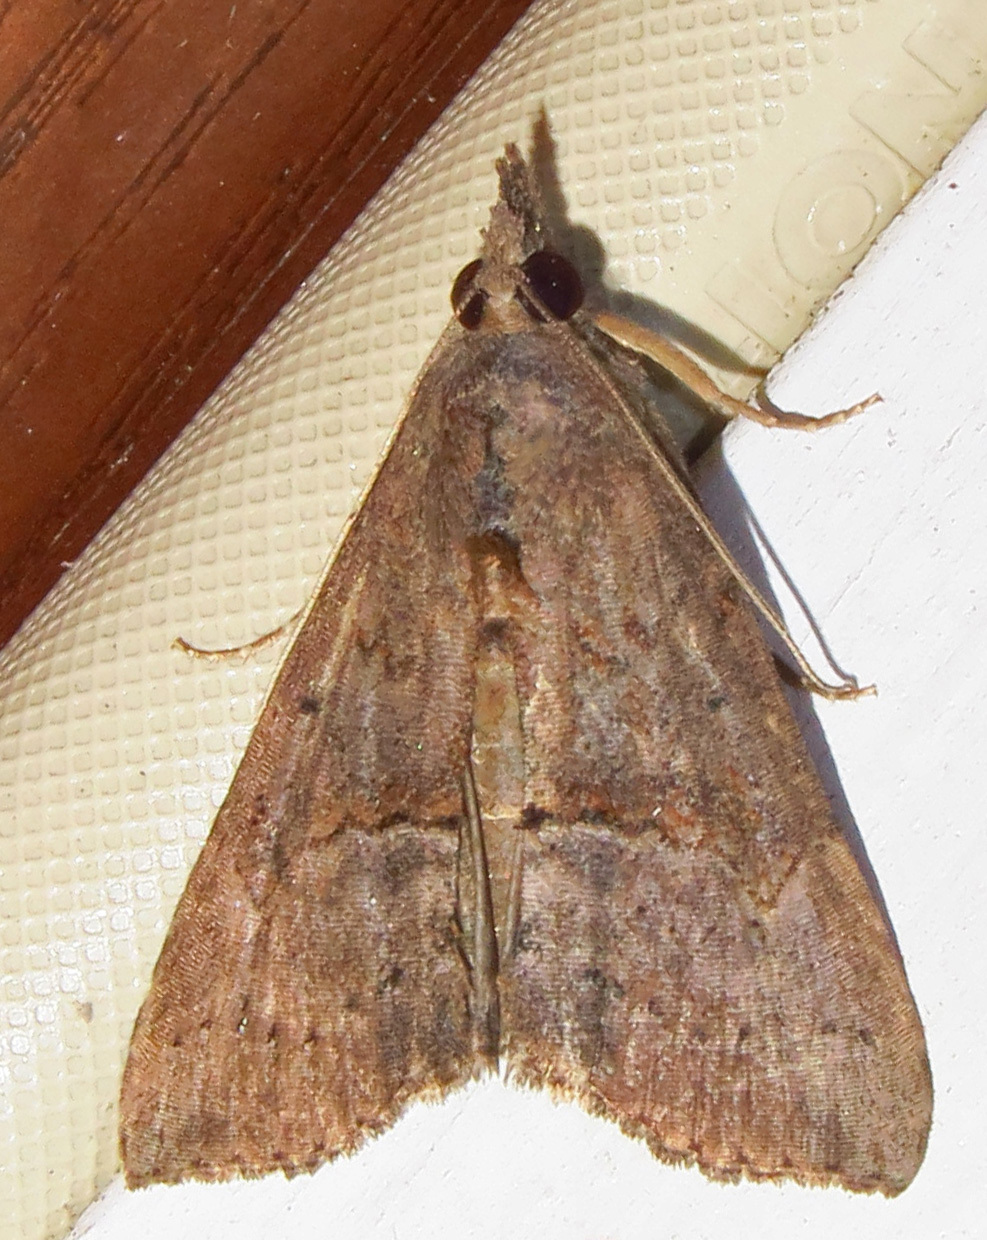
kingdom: Animalia
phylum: Arthropoda
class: Insecta
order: Lepidoptera
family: Erebidae
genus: Hypena
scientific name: Hypena scabra
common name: Green cloverworm
